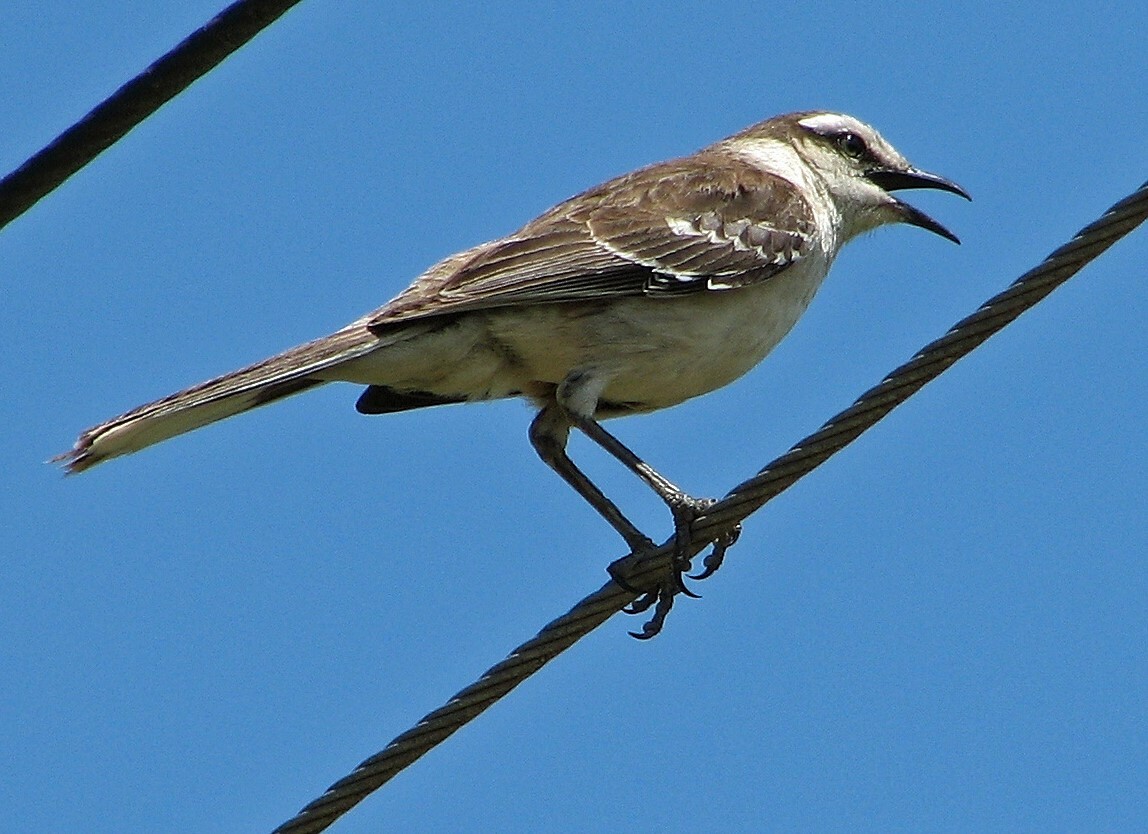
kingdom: Animalia
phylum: Chordata
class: Aves
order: Passeriformes
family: Mimidae
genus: Mimus
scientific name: Mimus saturninus
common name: Chalk-browed mockingbird
